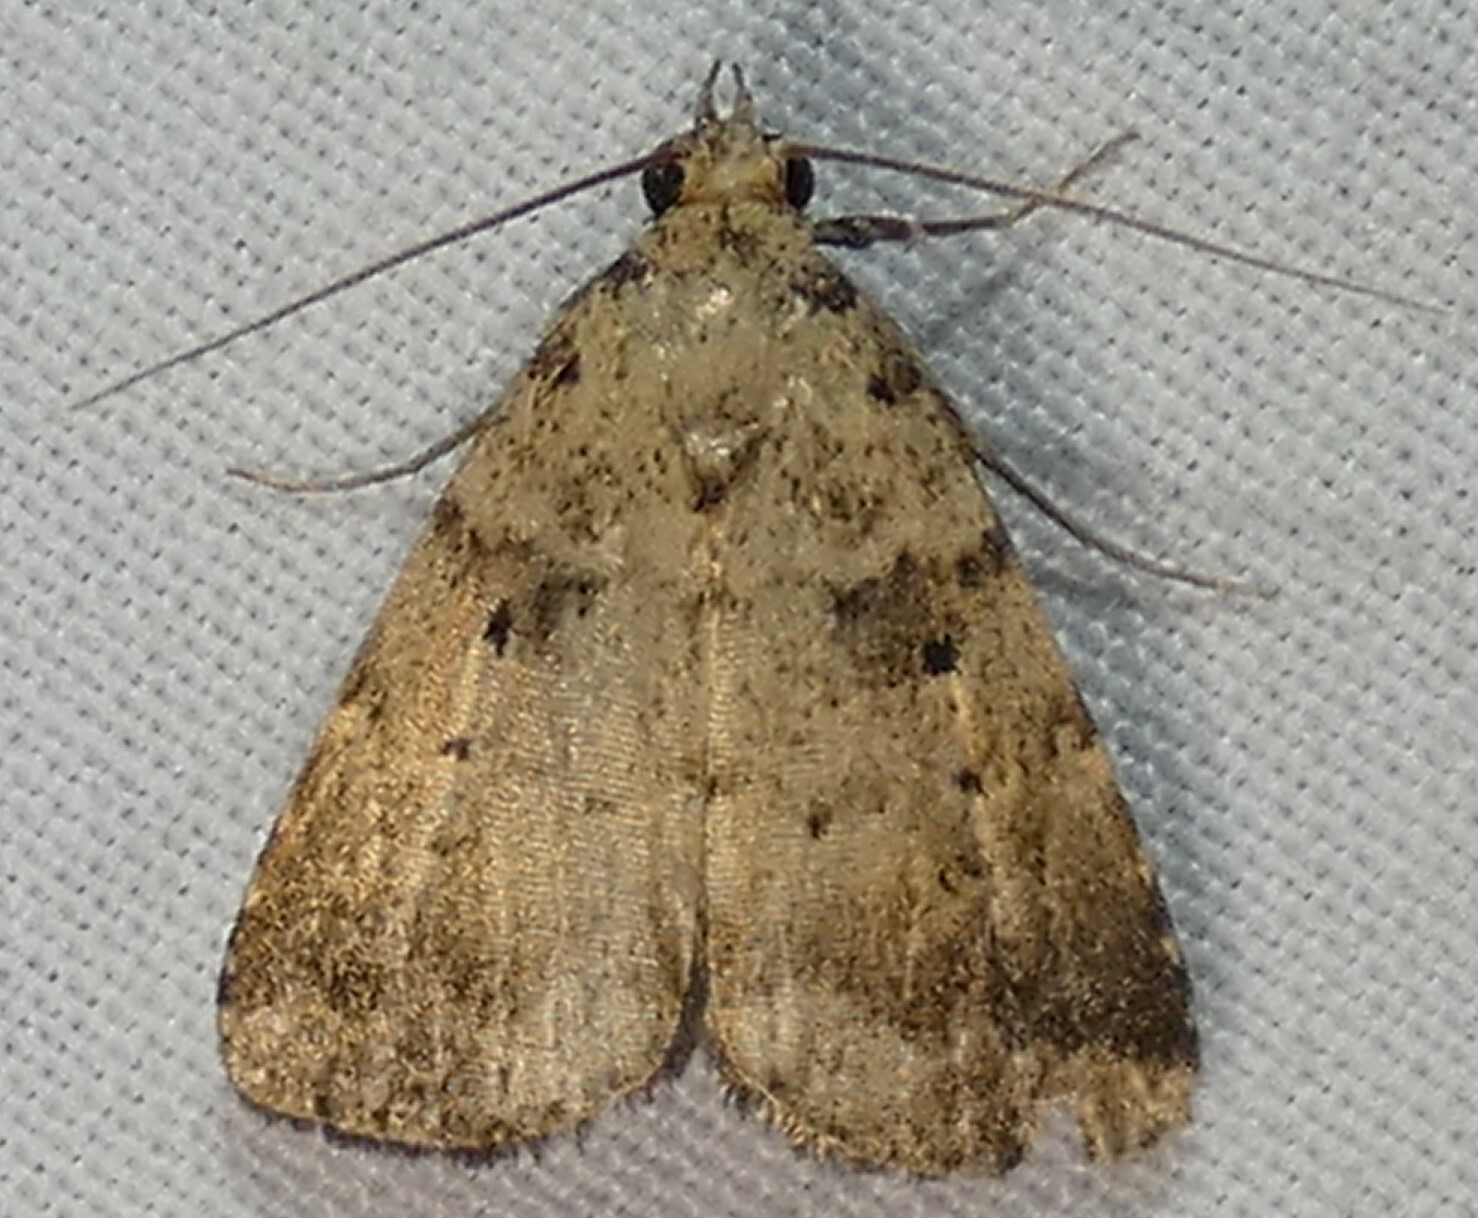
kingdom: Animalia
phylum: Arthropoda
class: Insecta
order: Lepidoptera
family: Erebidae
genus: Arugisa
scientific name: Arugisa lutea
